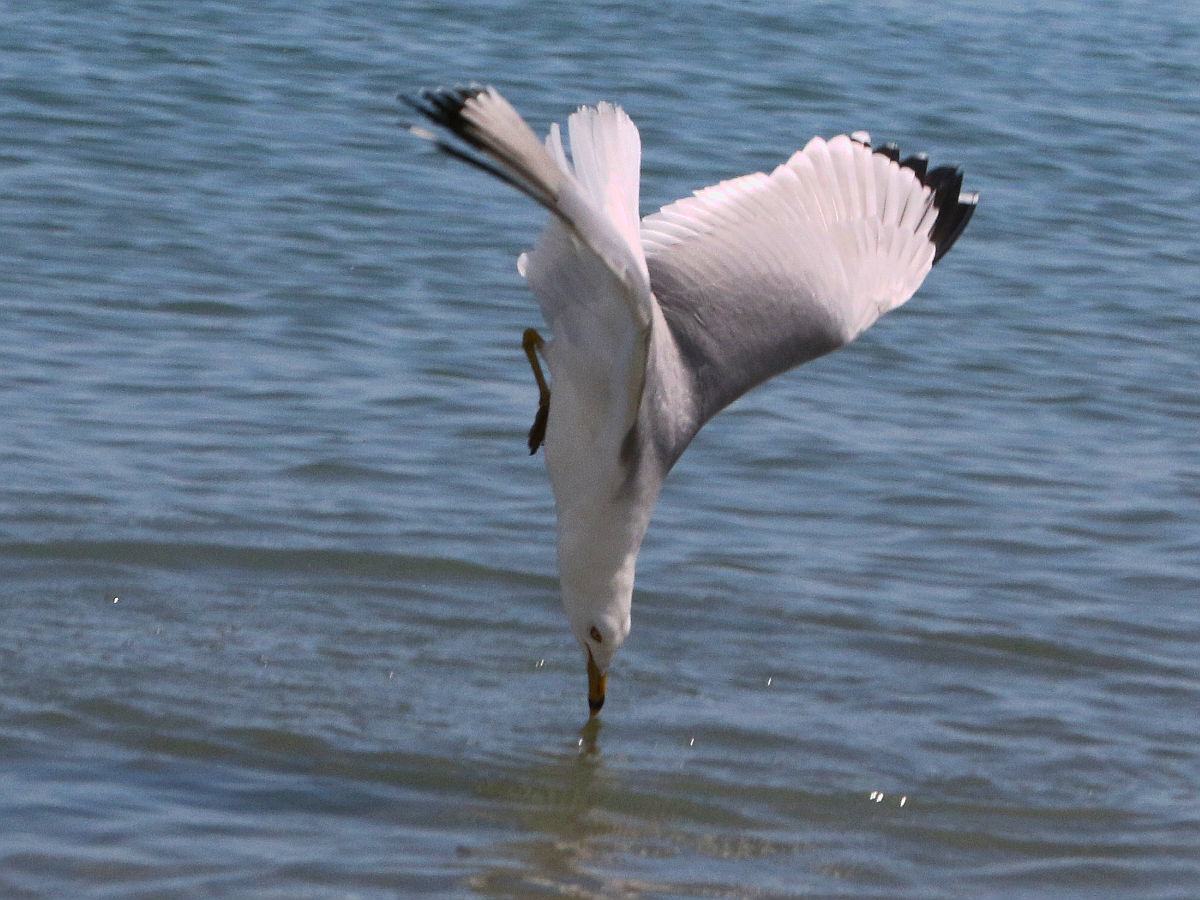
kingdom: Animalia
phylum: Chordata
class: Aves
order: Charadriiformes
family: Laridae
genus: Larus
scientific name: Larus delawarensis
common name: Ring-billed gull
